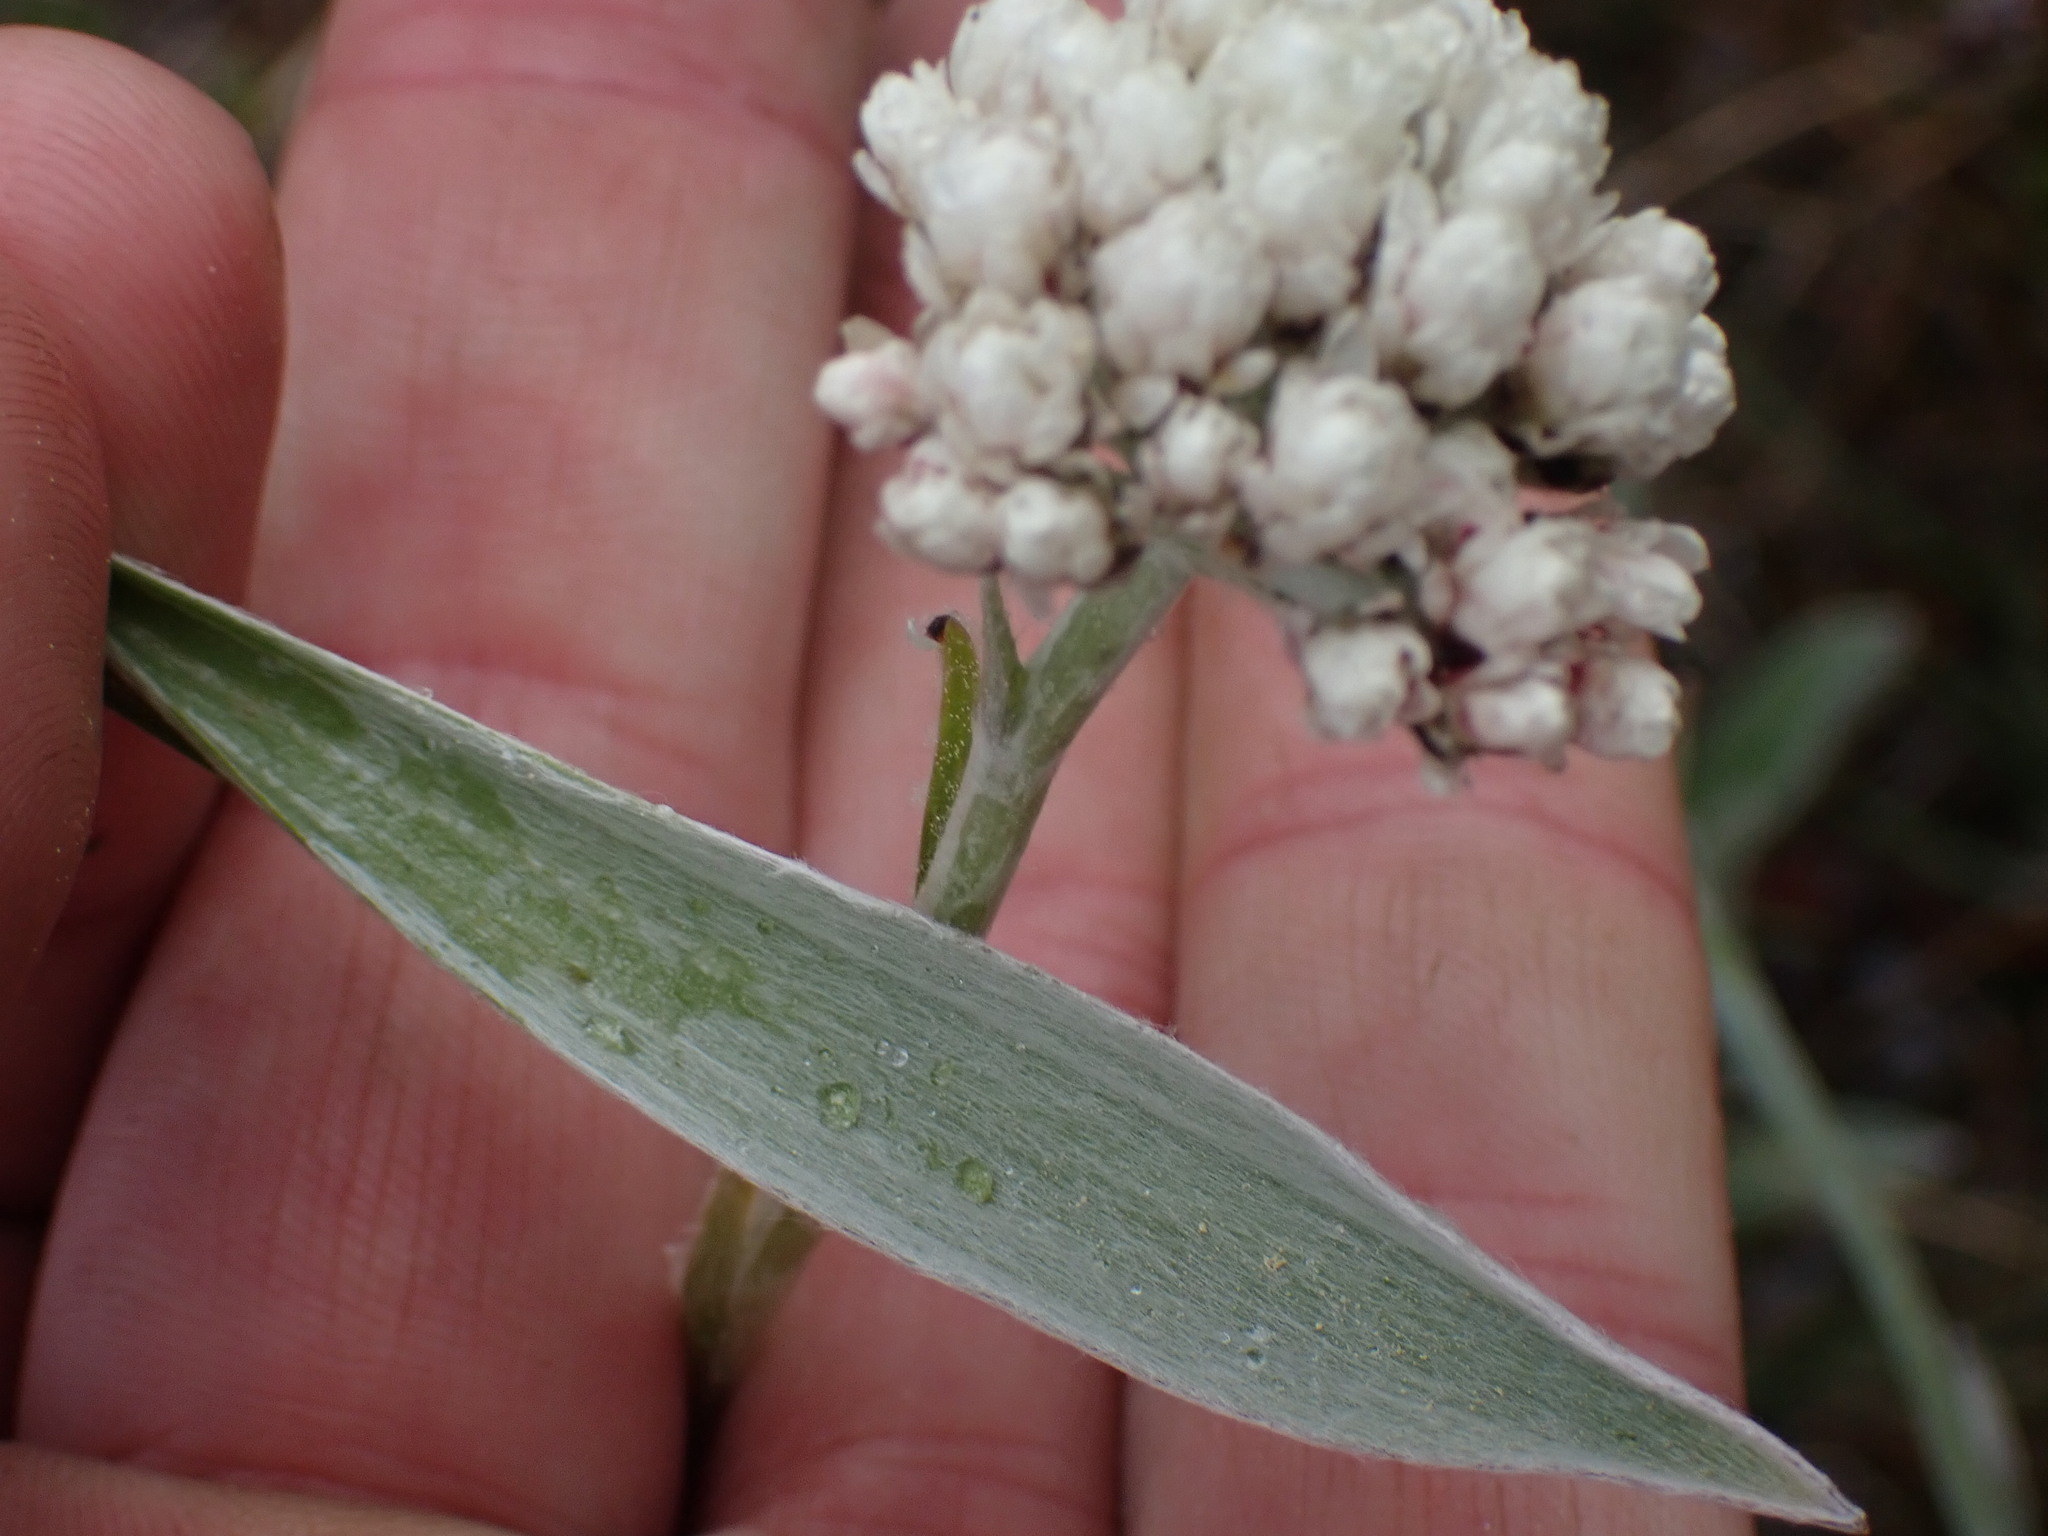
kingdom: Plantae
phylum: Tracheophyta
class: Magnoliopsida
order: Asterales
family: Asteraceae
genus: Antennaria
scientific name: Antennaria anaphaloides
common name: Tall pussytoes
